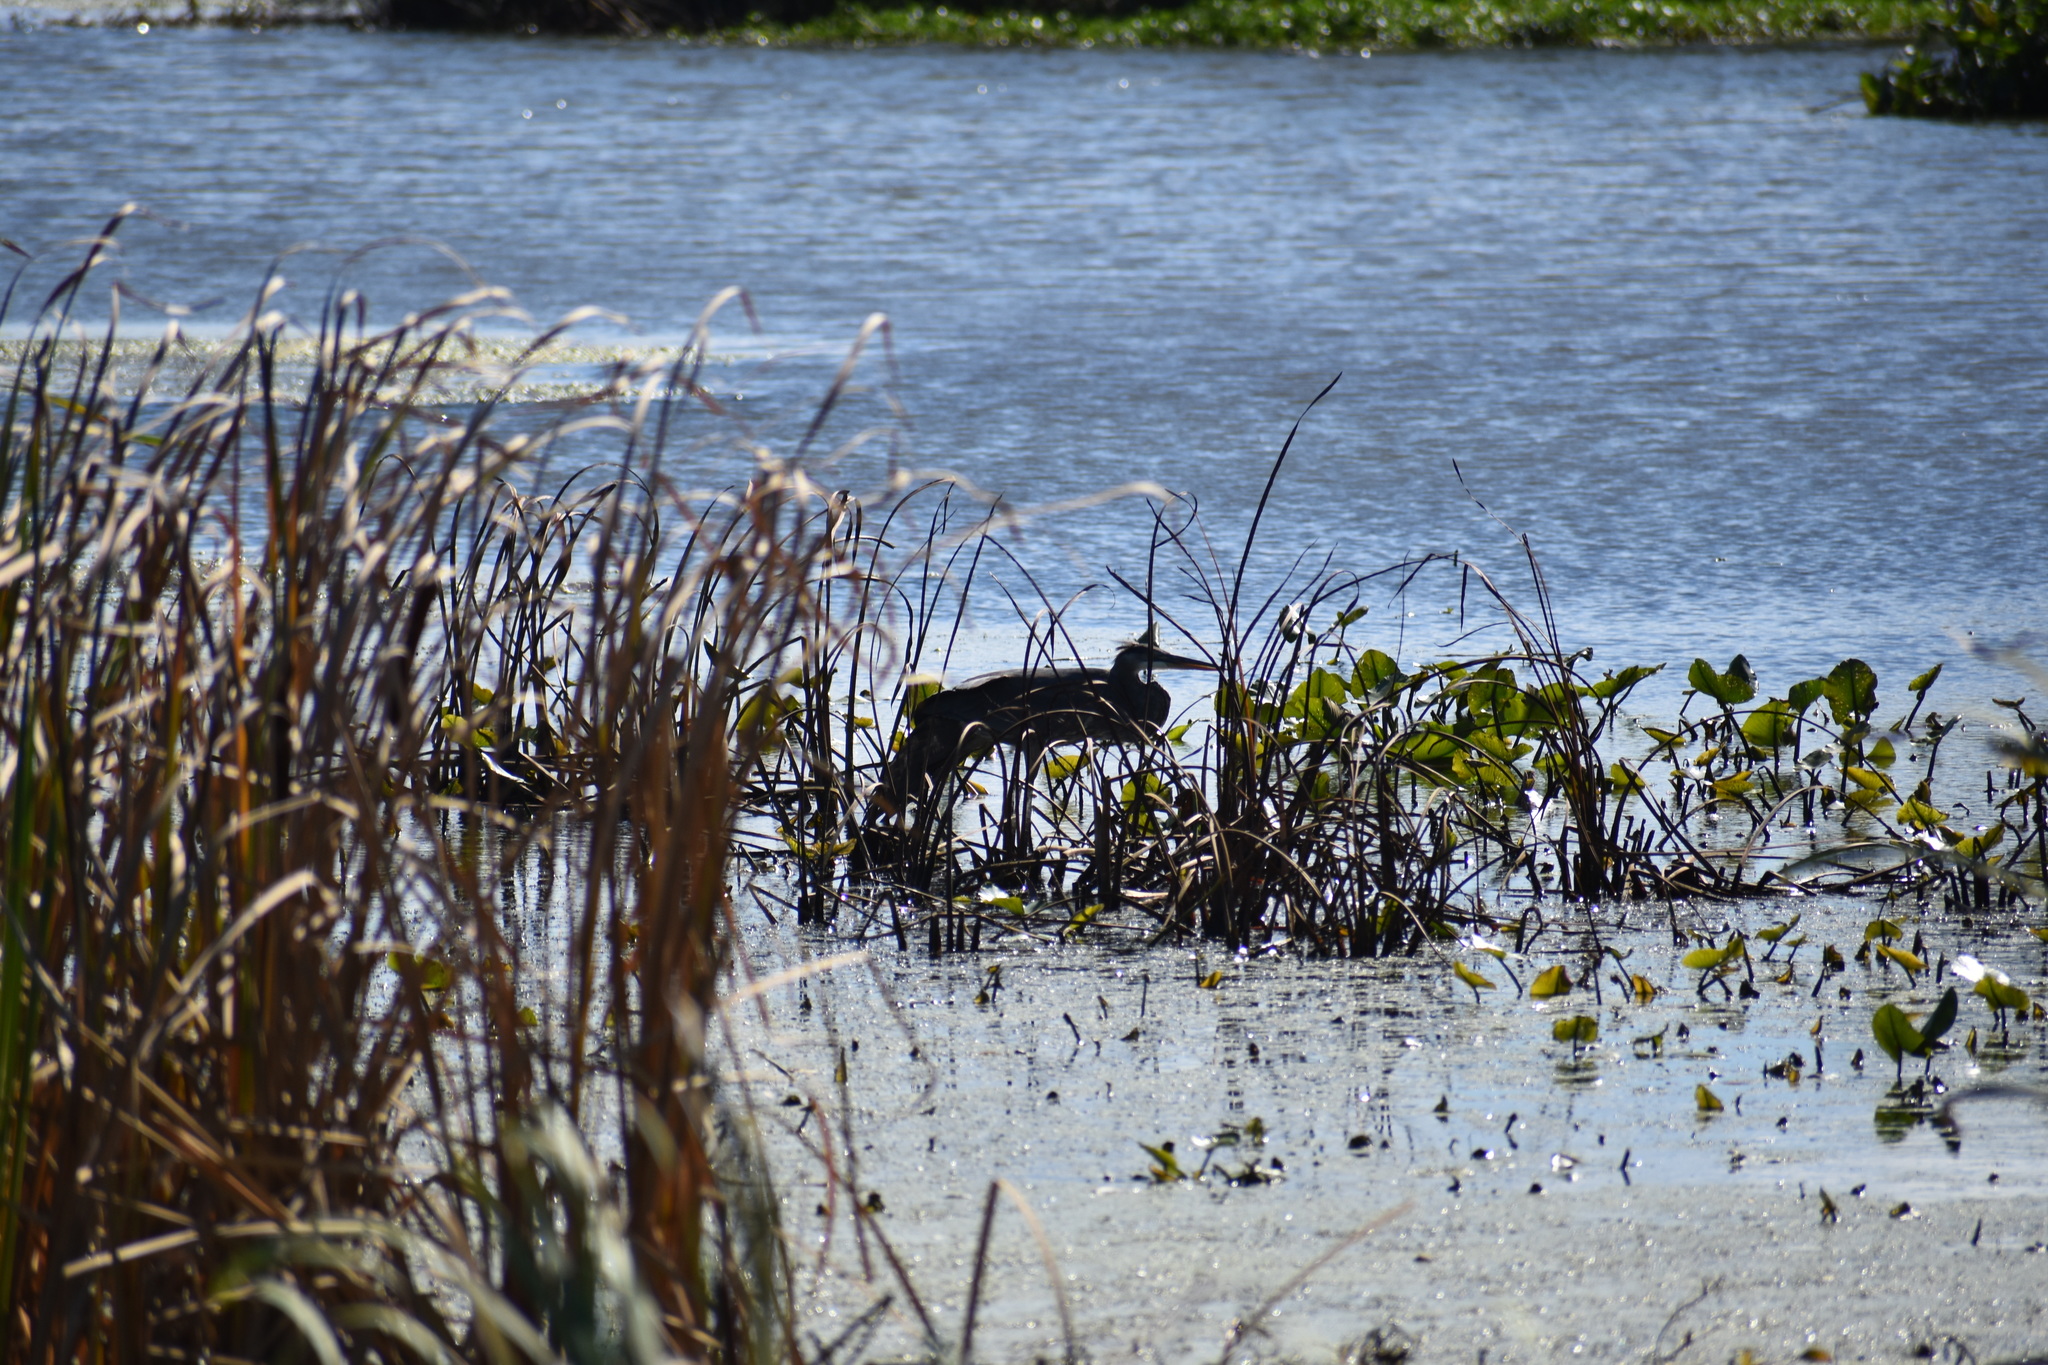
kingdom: Animalia
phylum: Chordata
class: Aves
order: Pelecaniformes
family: Ardeidae
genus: Ardea
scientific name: Ardea herodias
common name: Great blue heron
